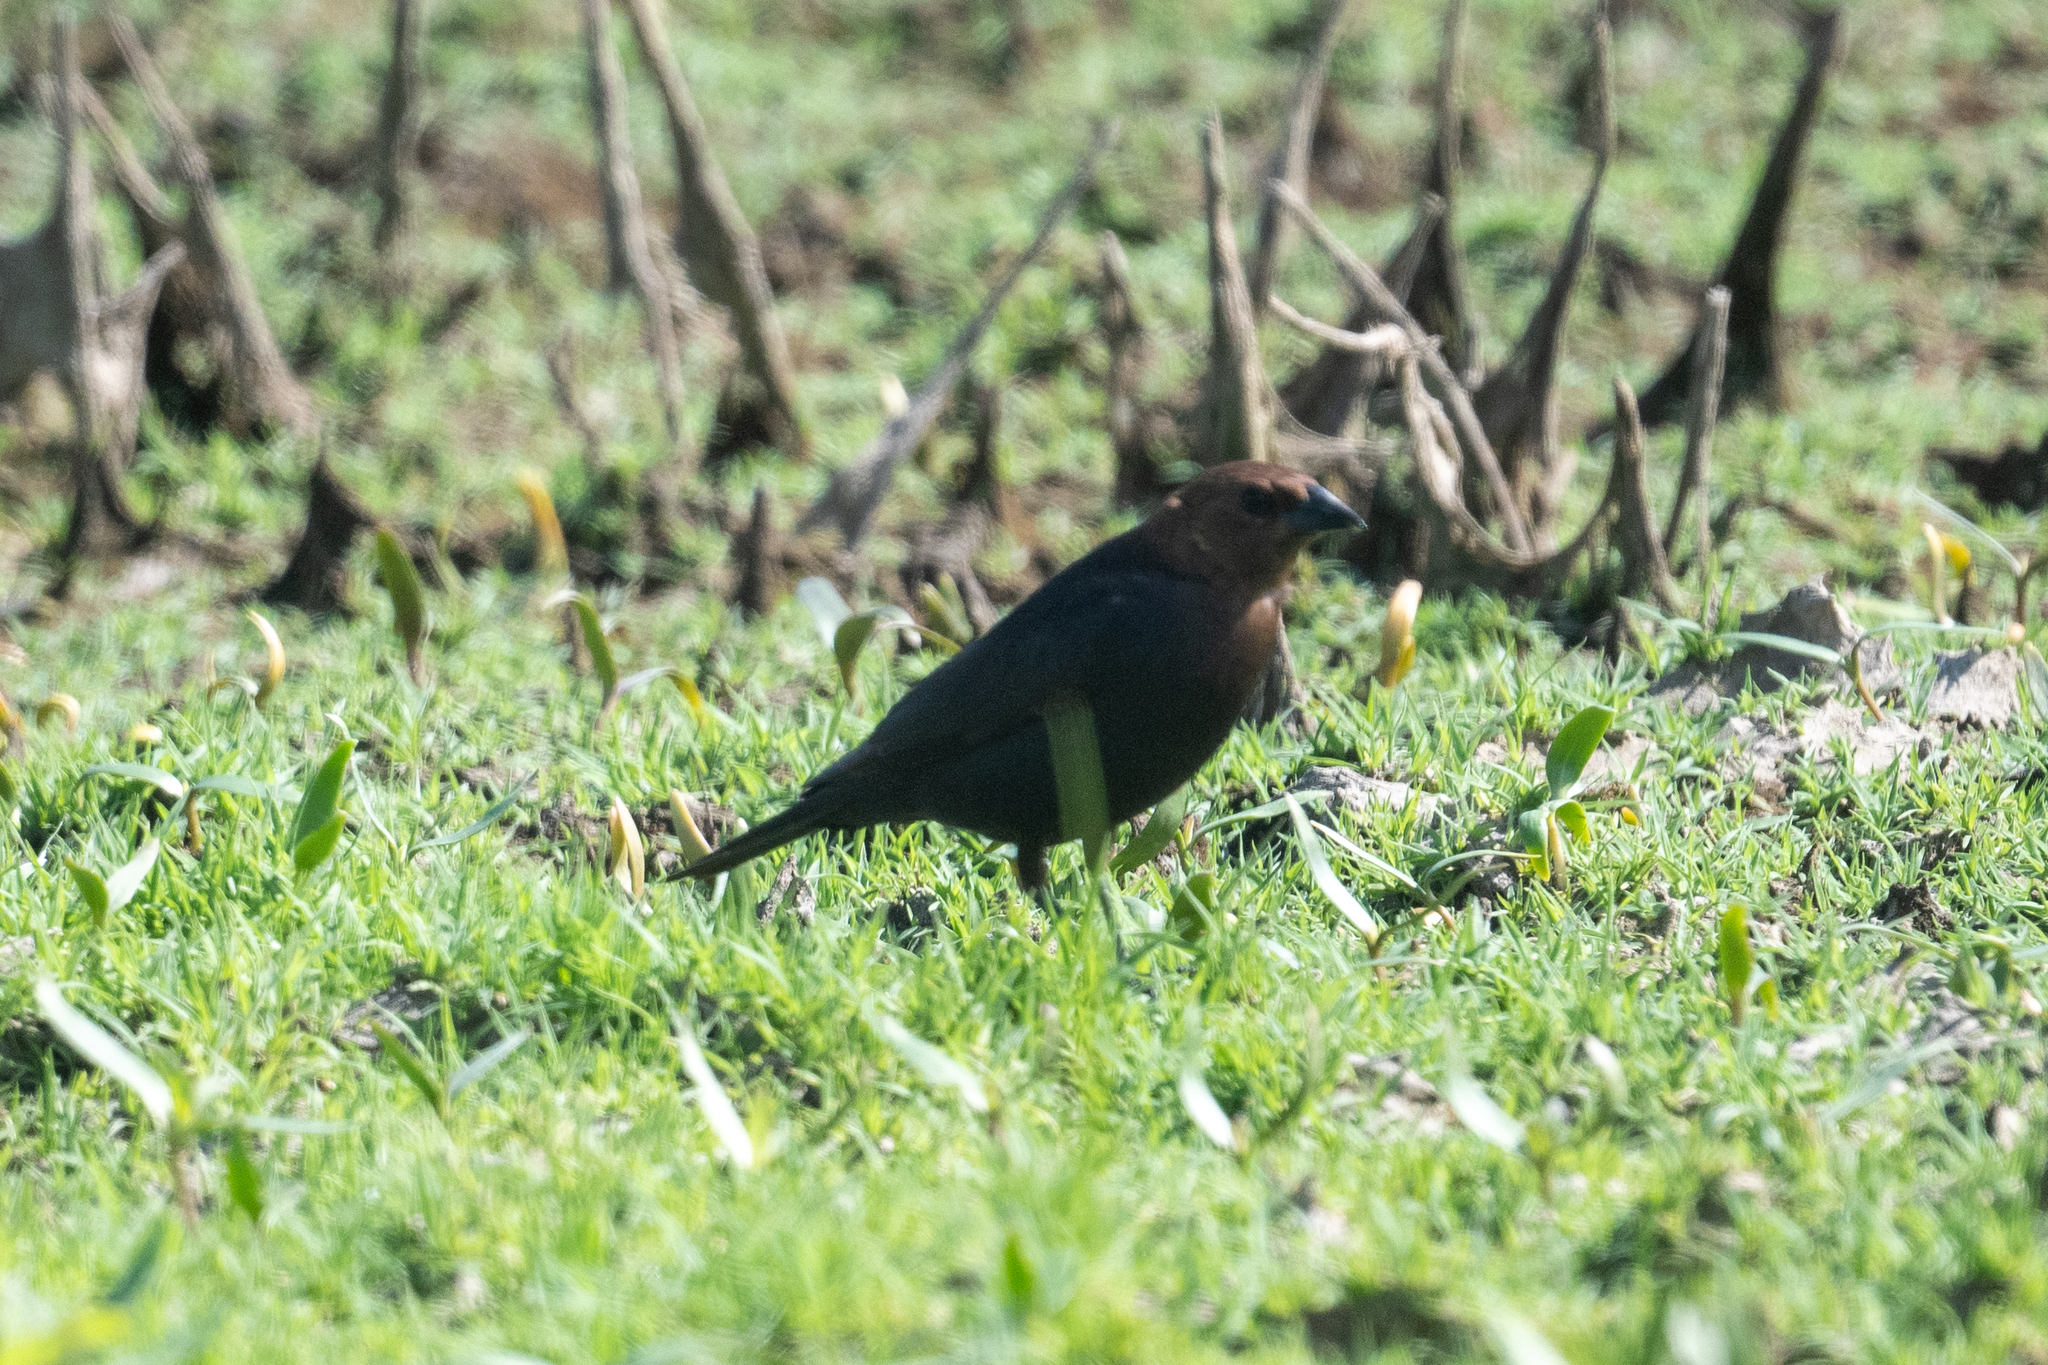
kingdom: Animalia
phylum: Chordata
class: Aves
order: Passeriformes
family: Icteridae
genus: Molothrus
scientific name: Molothrus ater
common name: Brown-headed cowbird
